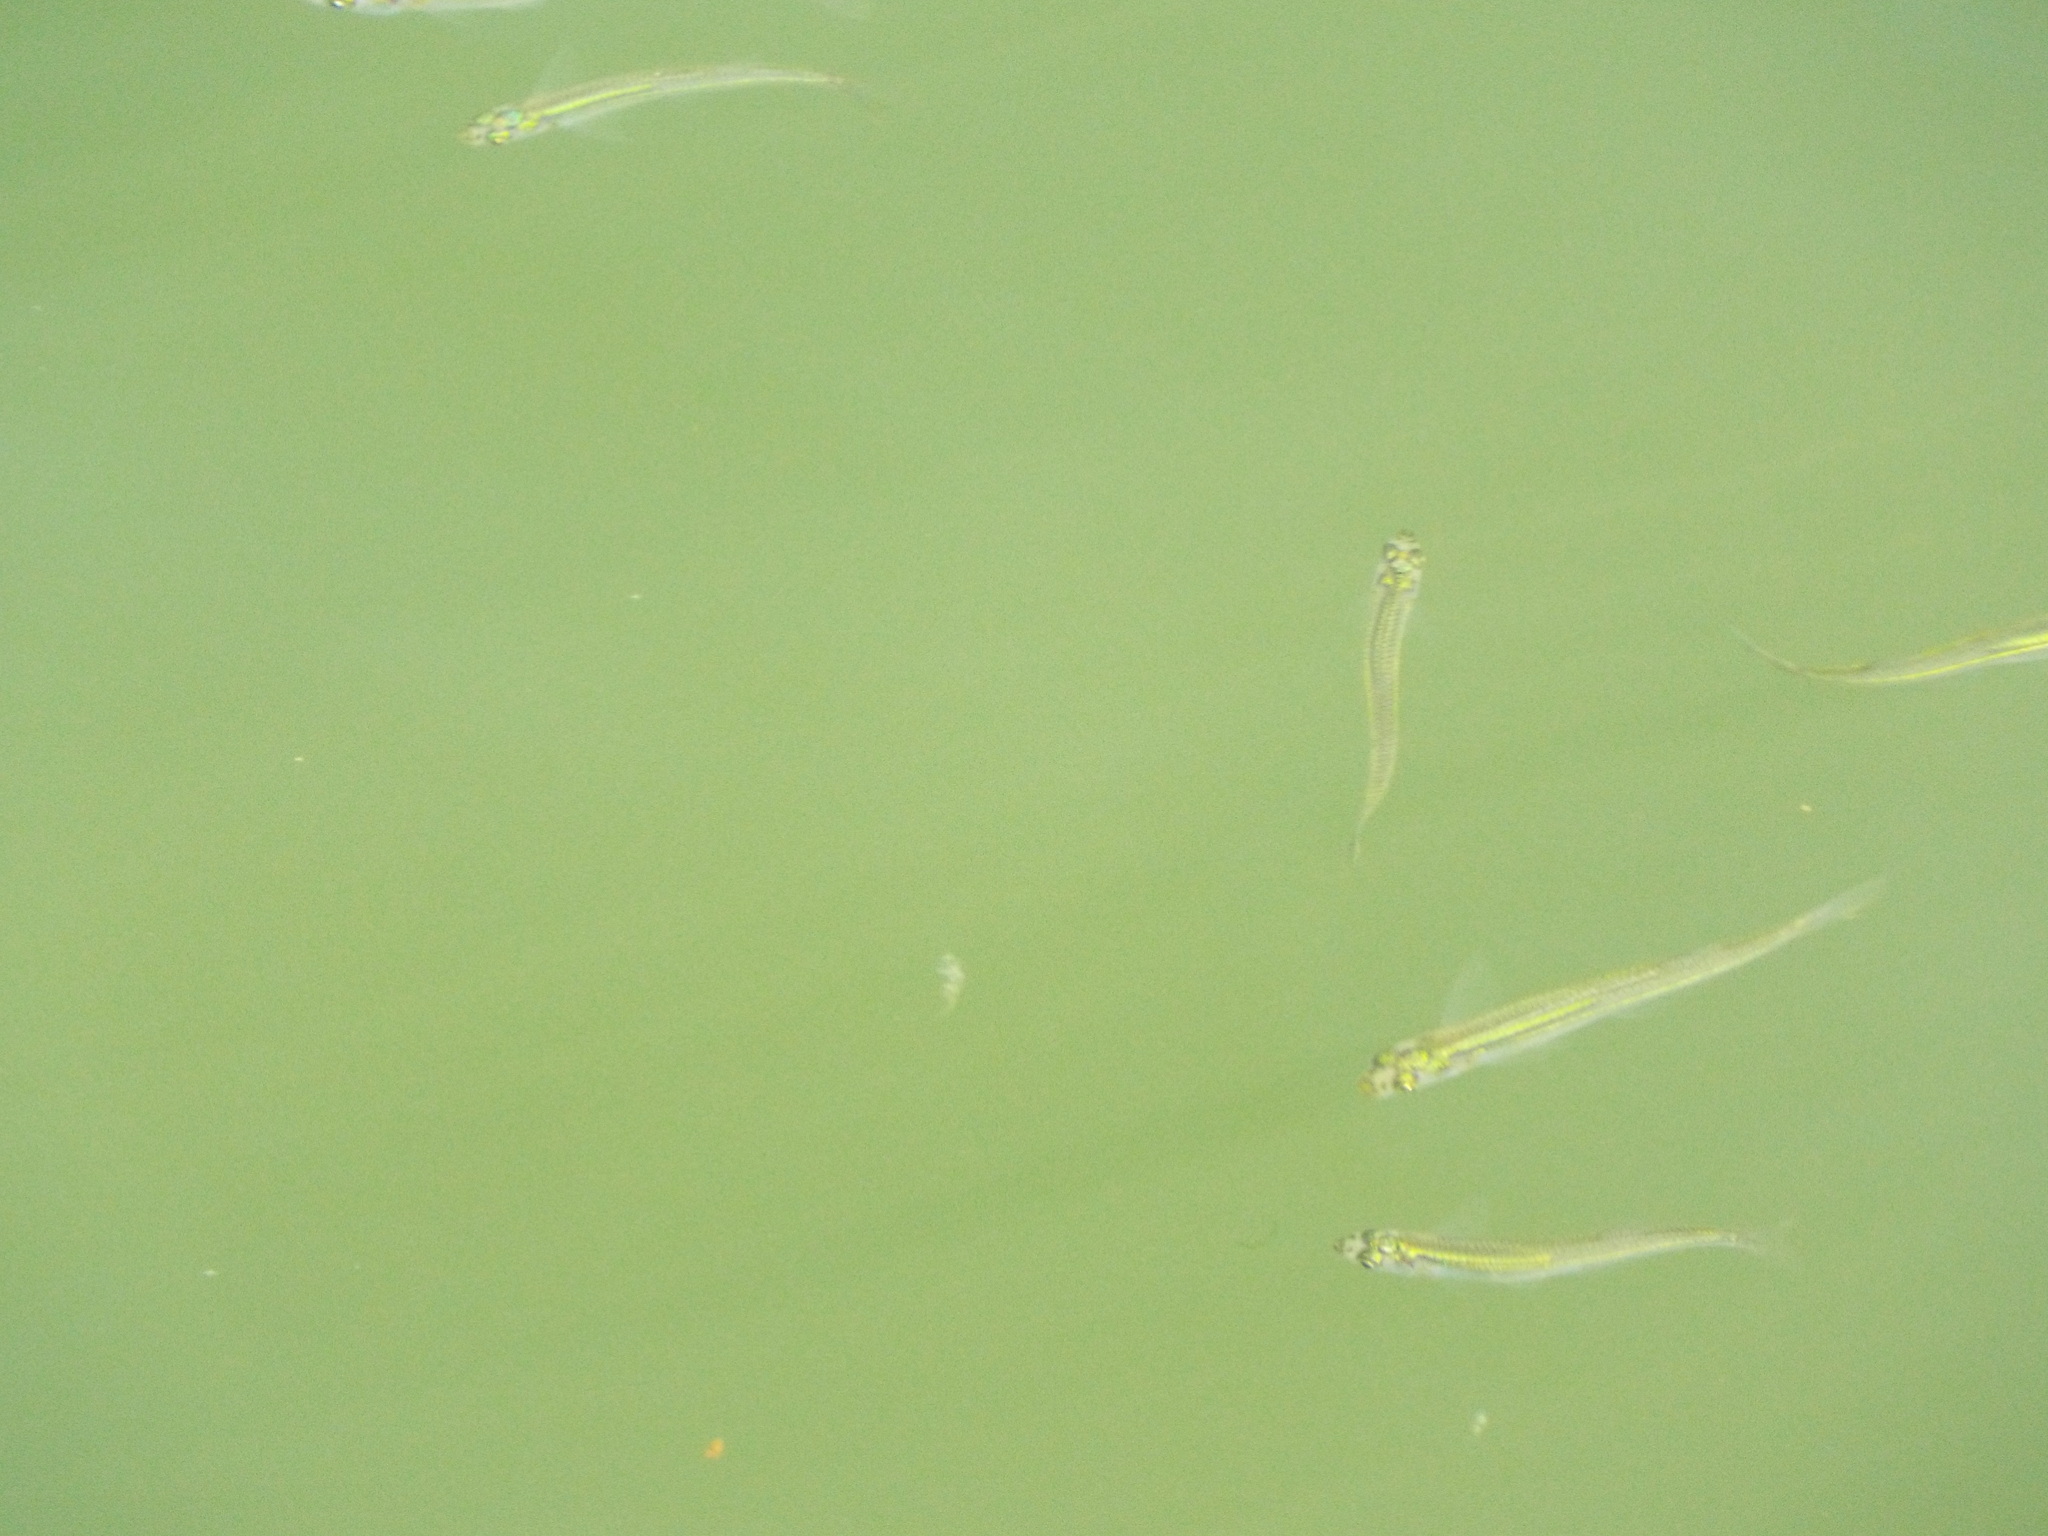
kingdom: Animalia
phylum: Chordata
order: Atheriniformes
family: Atherinopsidae
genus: Menidia
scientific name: Menidia menidia
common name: Atlantic silverside
